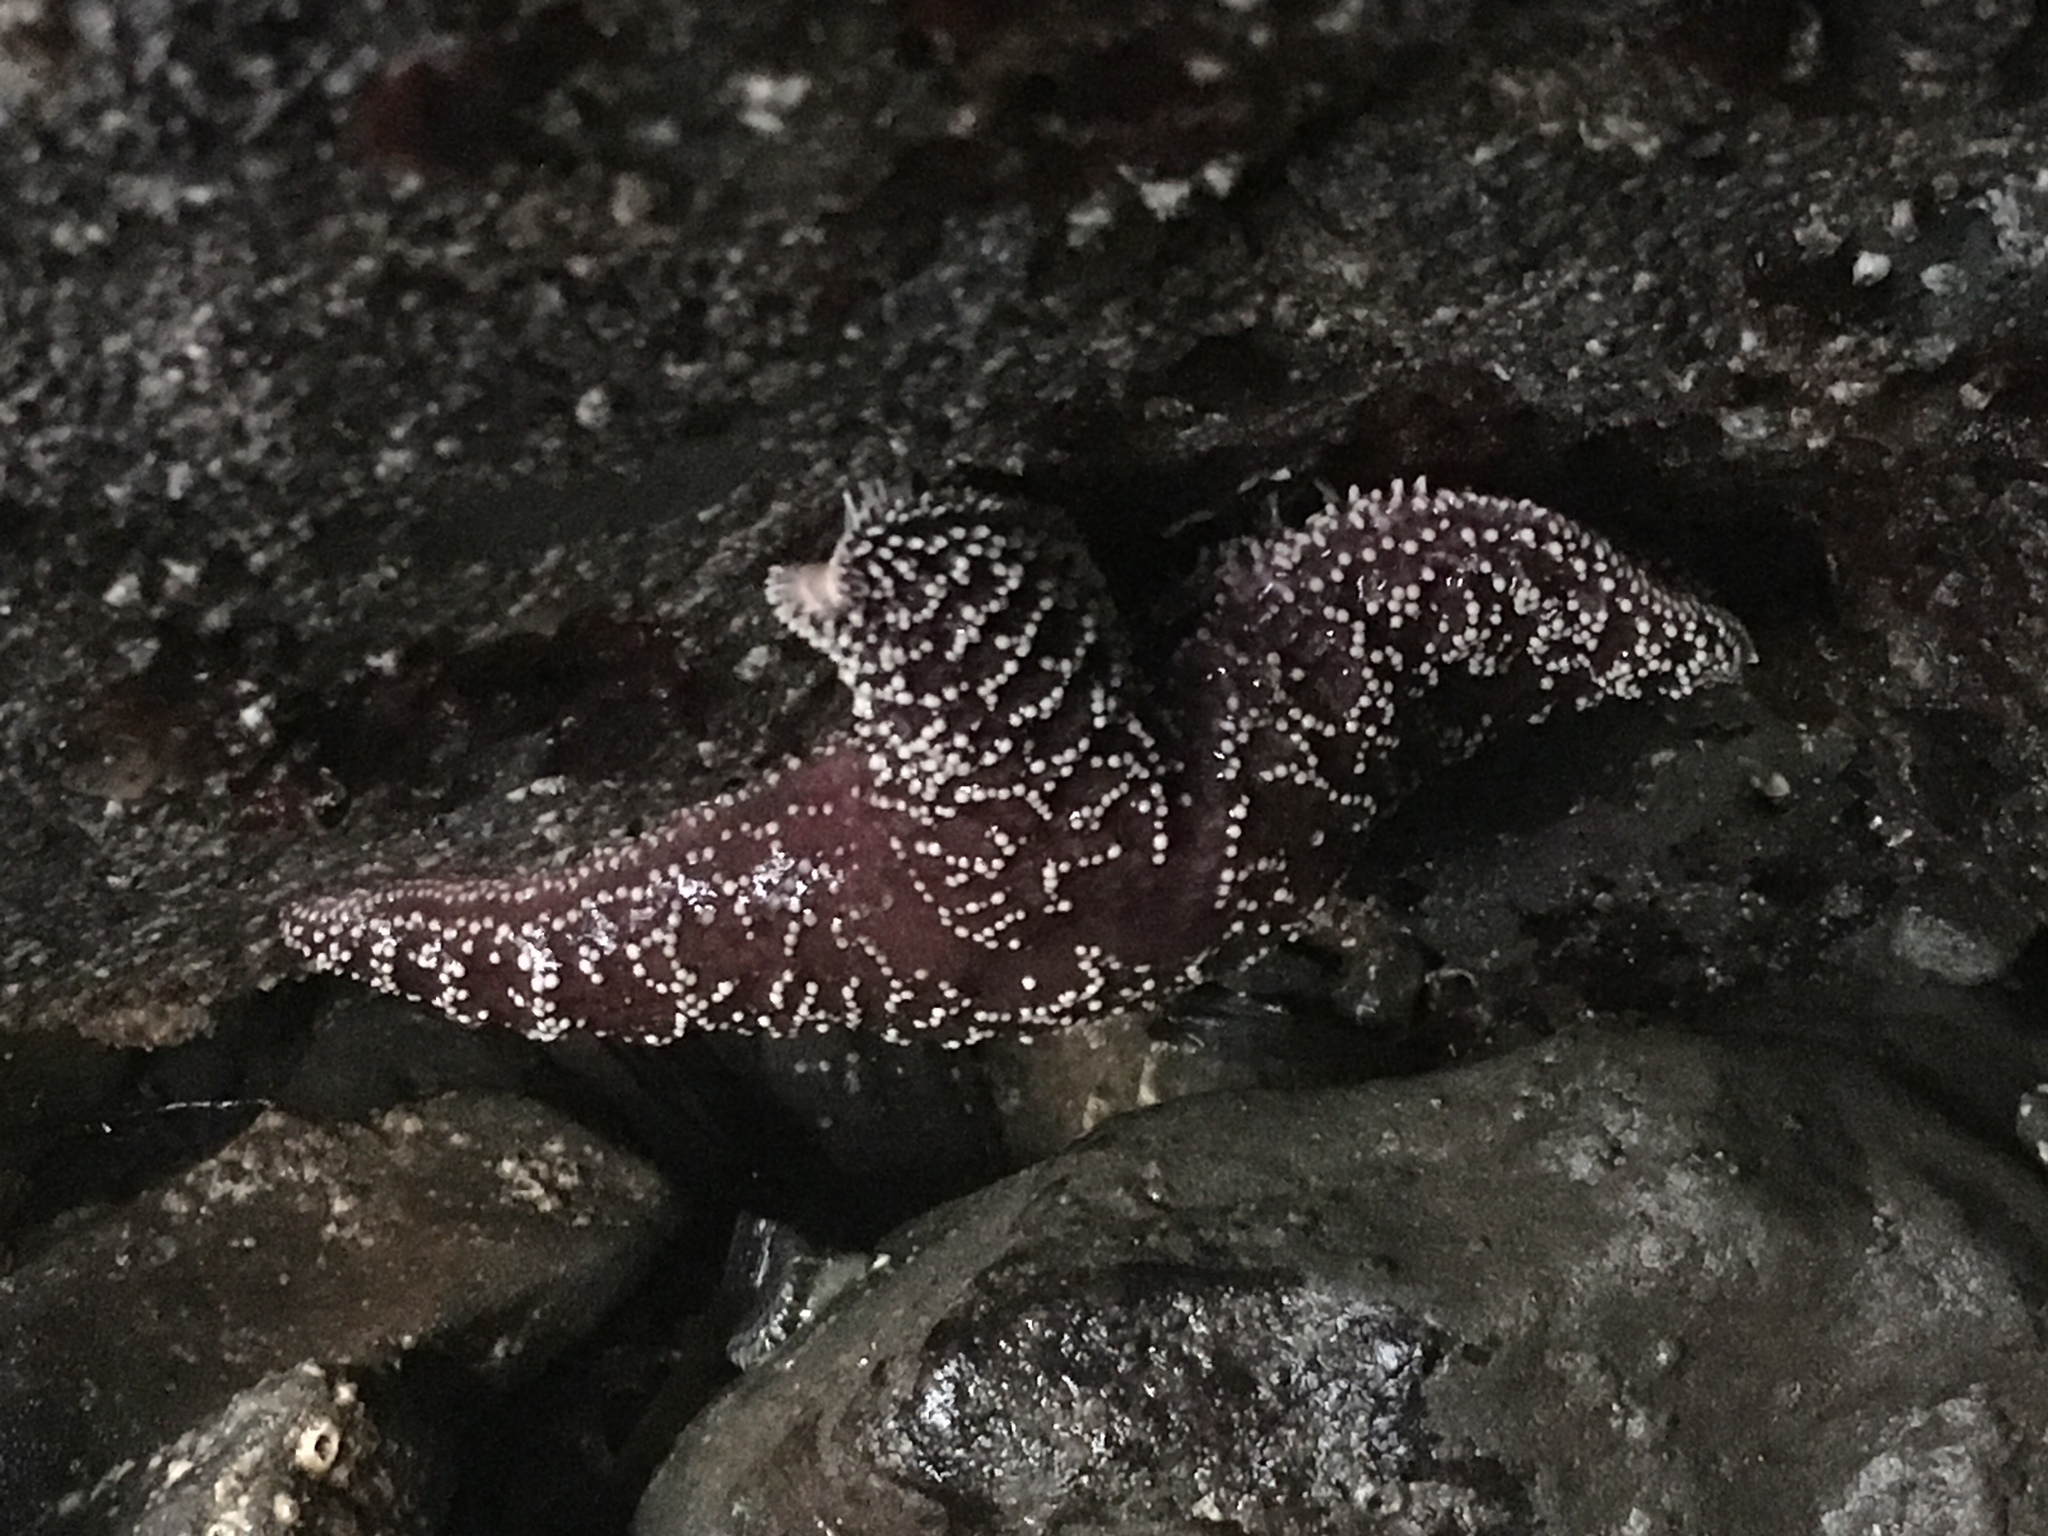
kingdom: Animalia
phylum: Echinodermata
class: Asteroidea
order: Forcipulatida
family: Asteriidae
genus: Pisaster
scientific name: Pisaster ochraceus
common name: Ochre stars
